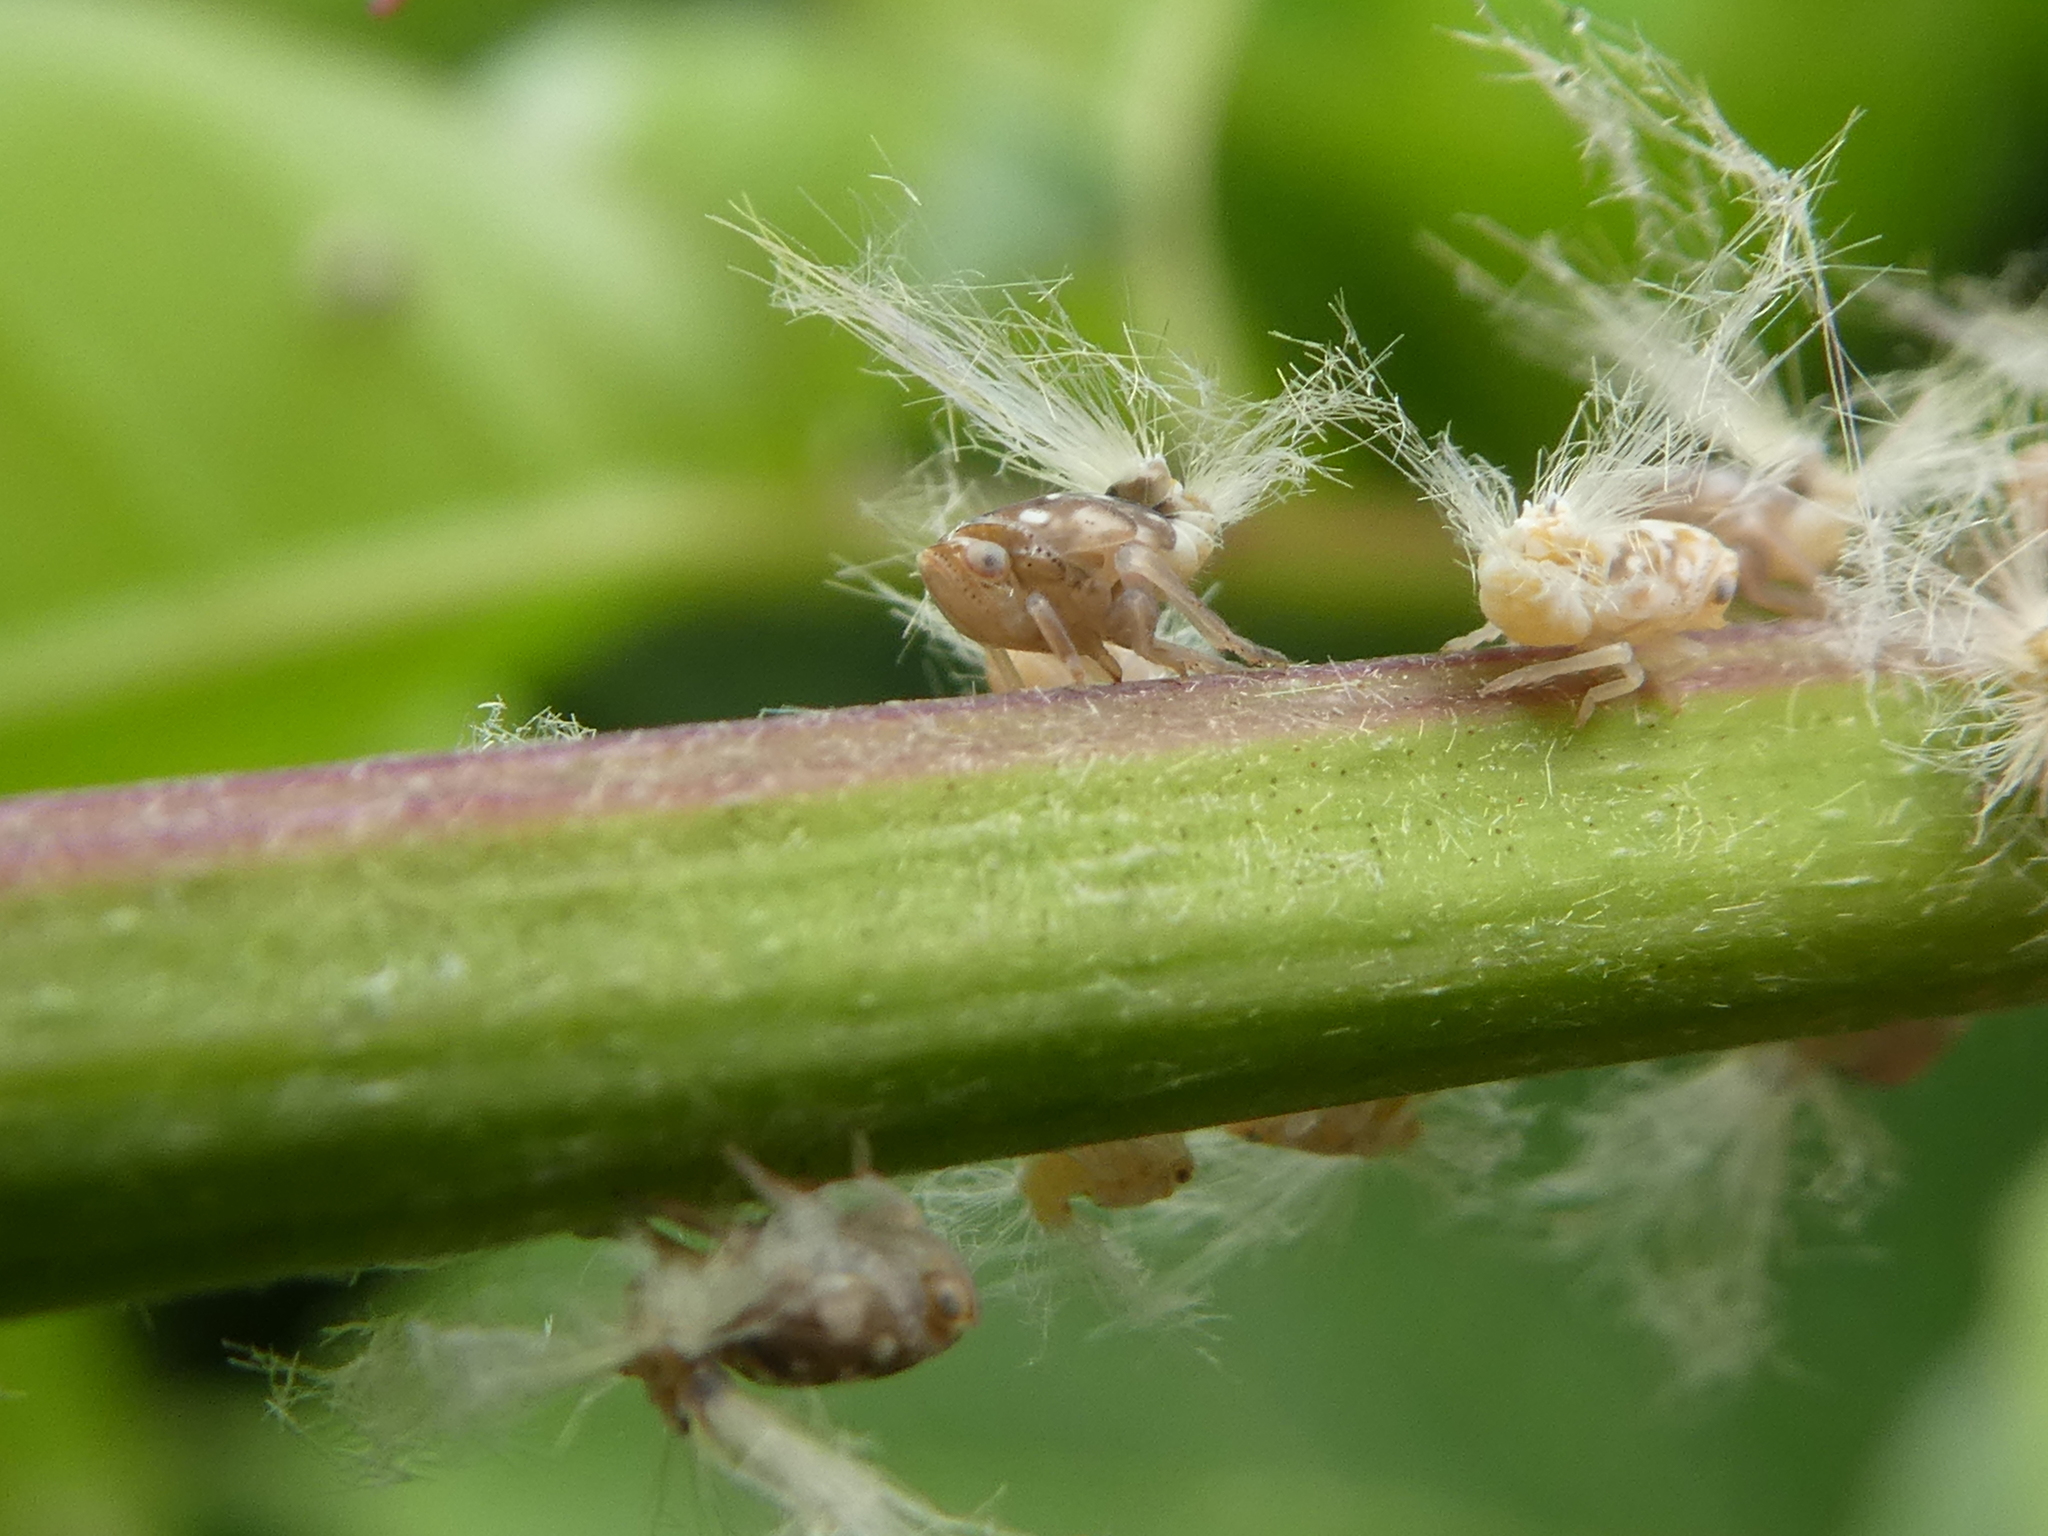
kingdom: Animalia
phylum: Arthropoda
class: Insecta
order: Hemiptera
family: Ricaniidae
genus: Scolypopa
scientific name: Scolypopa australis
